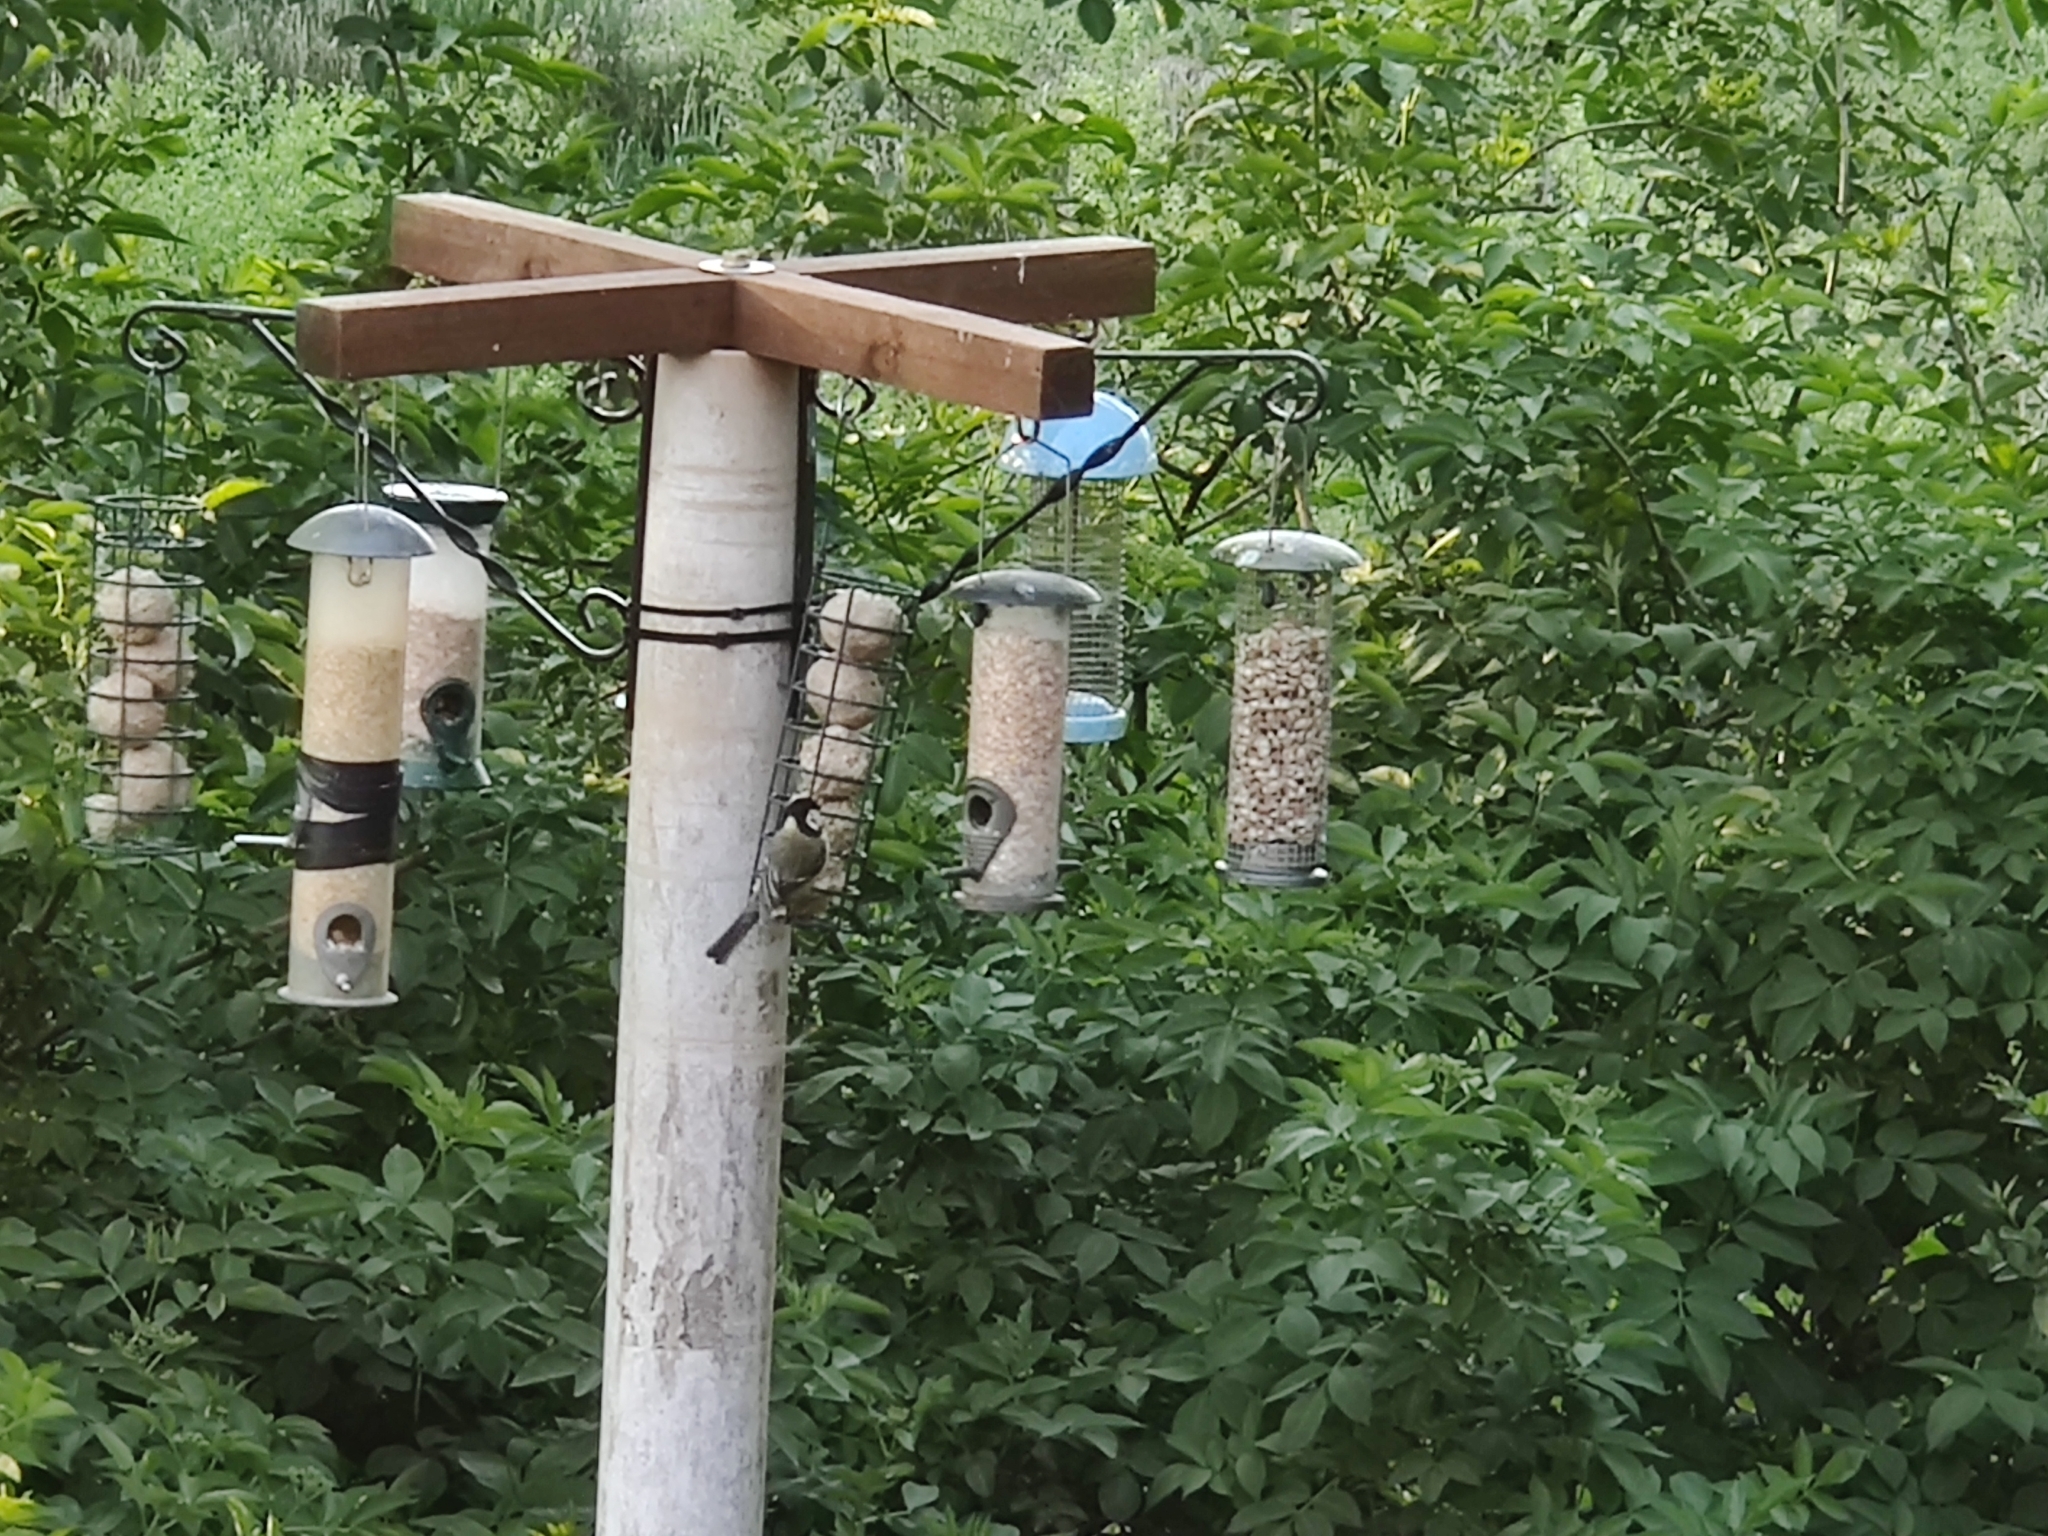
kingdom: Animalia
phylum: Chordata
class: Aves
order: Passeriformes
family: Paridae
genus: Parus
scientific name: Parus major
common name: Great tit
